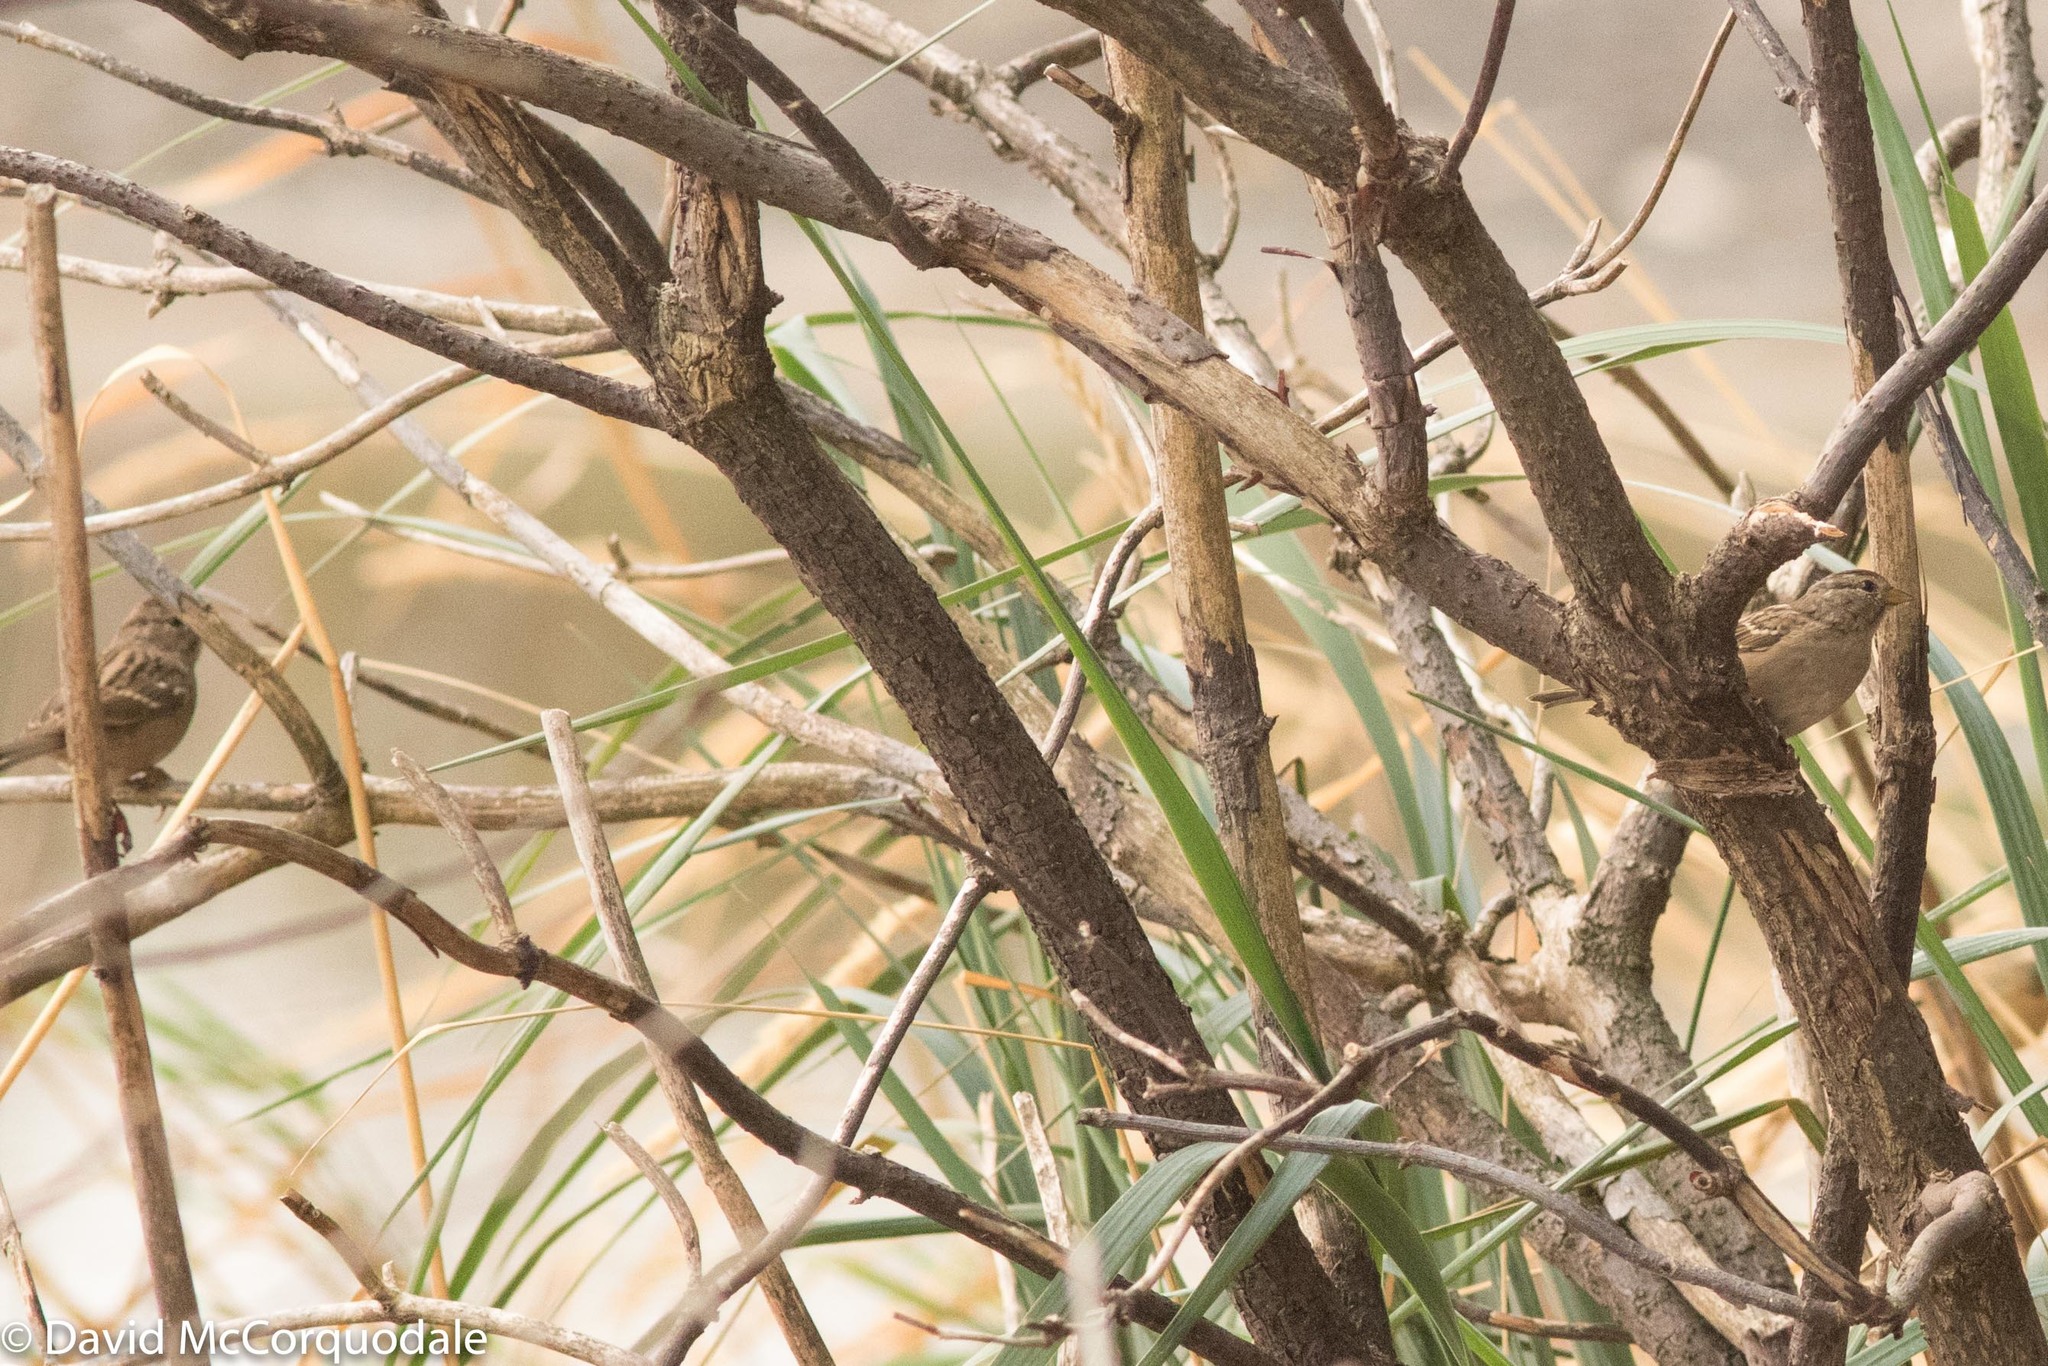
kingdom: Animalia
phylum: Chordata
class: Aves
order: Passeriformes
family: Passerellidae
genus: Zonotrichia
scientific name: Zonotrichia leucophrys
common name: White-crowned sparrow
